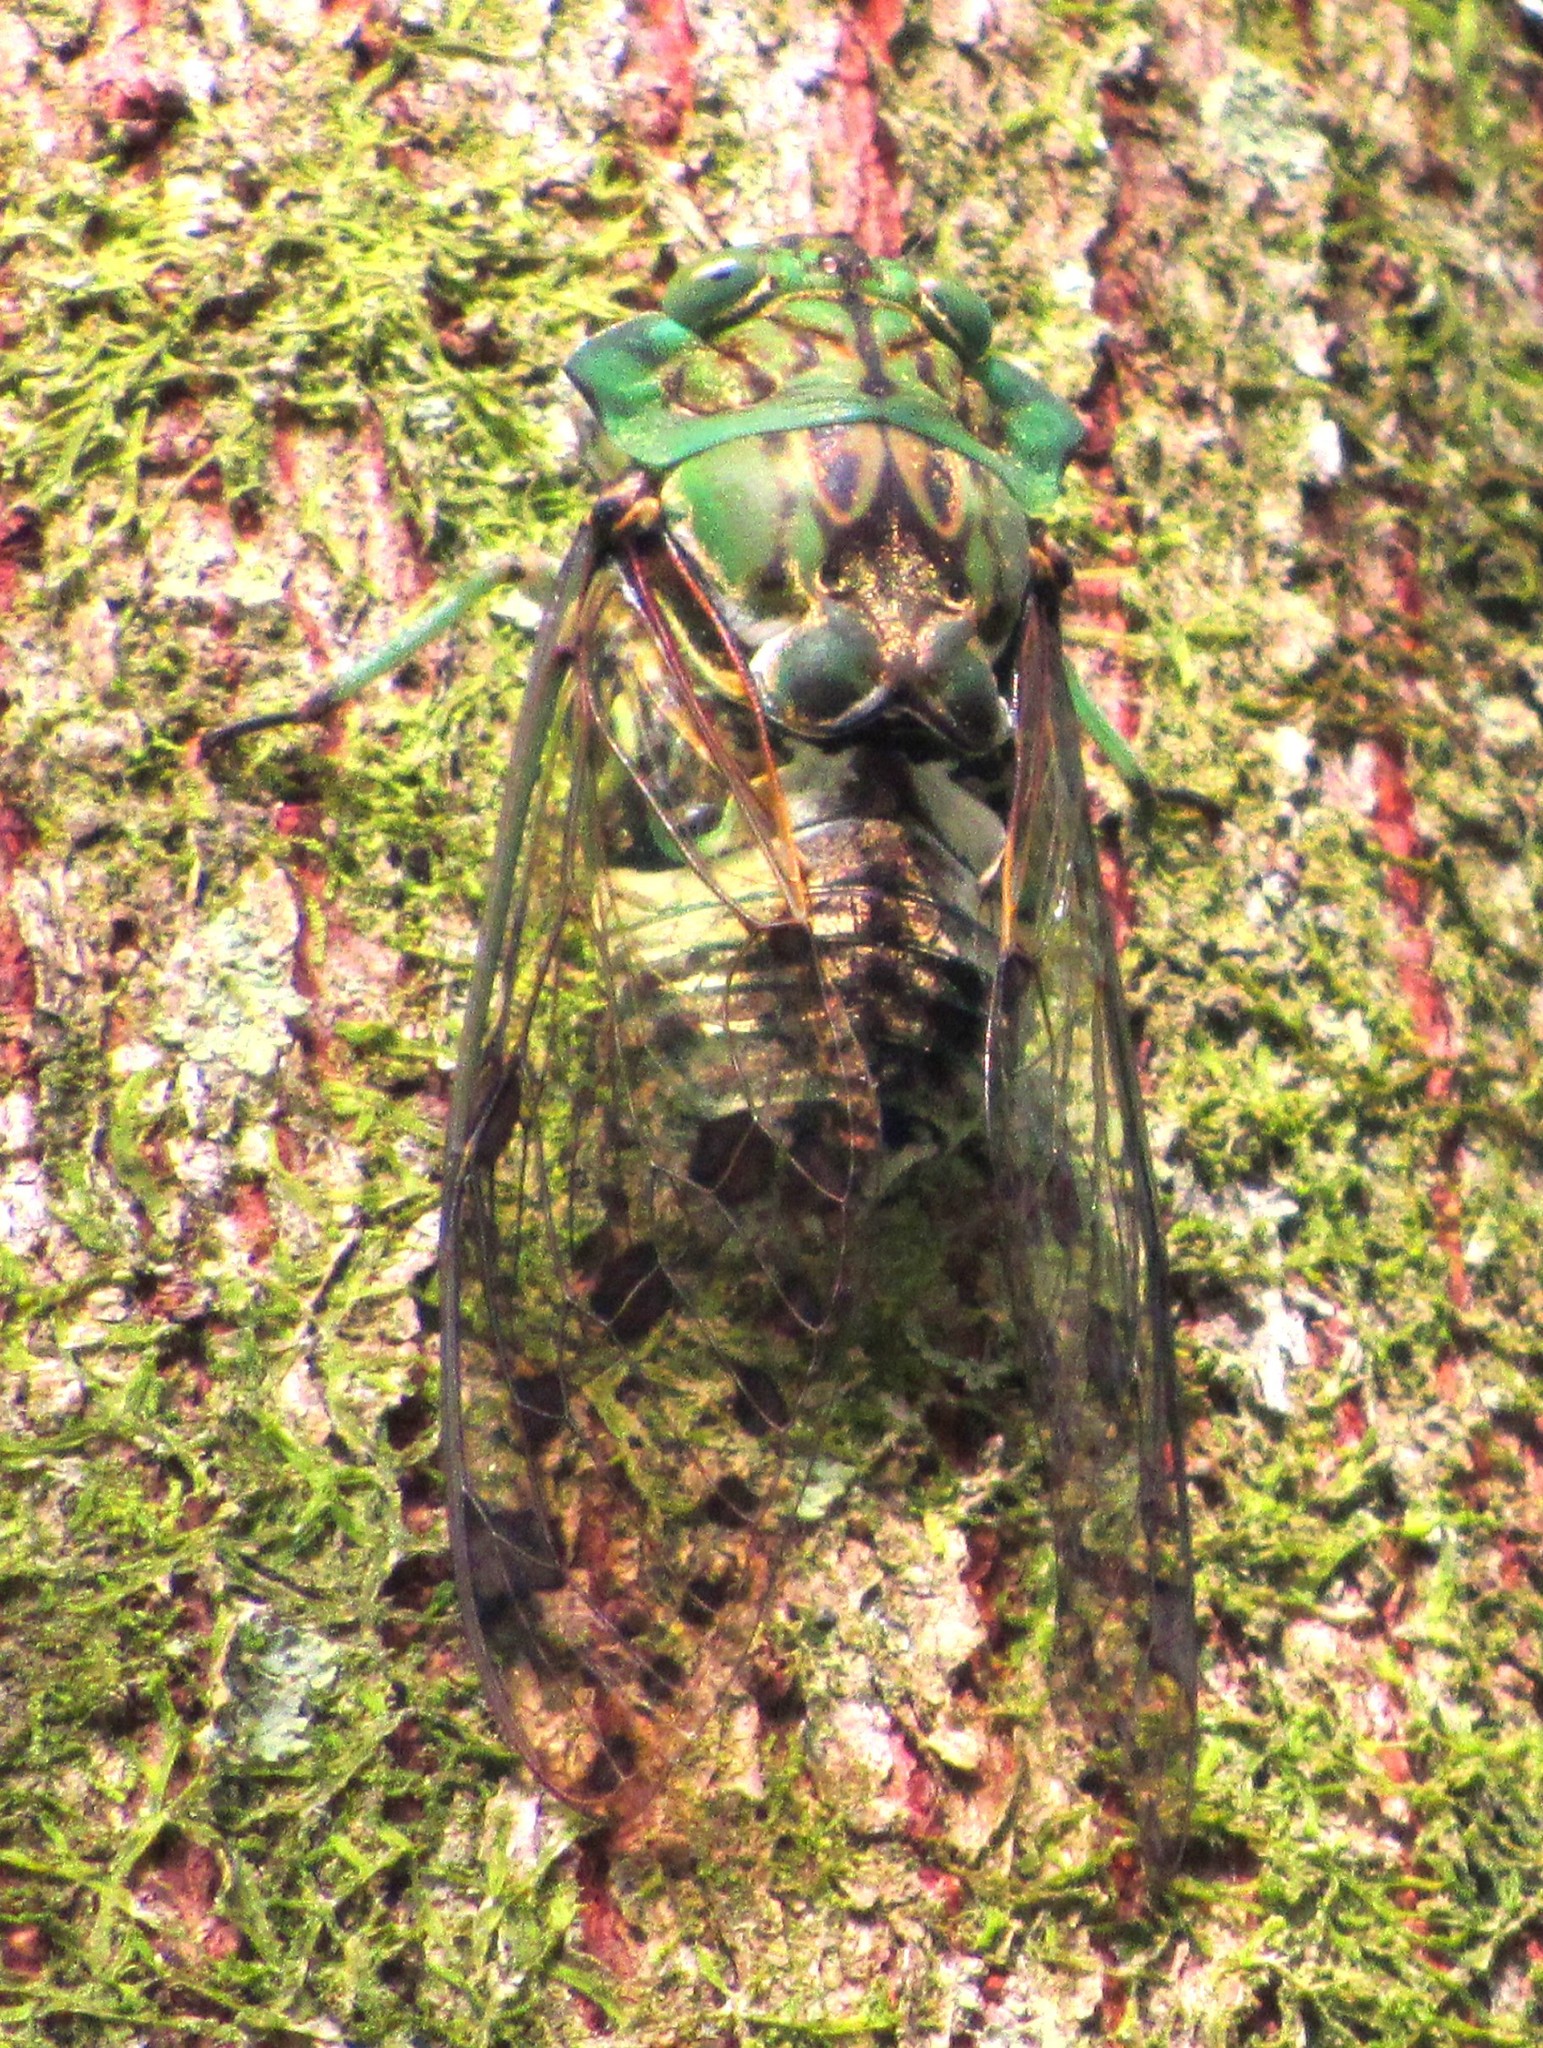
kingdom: Animalia
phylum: Arthropoda
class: Insecta
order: Hemiptera
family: Cicadidae
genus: Zammara
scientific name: Zammara tympanum
